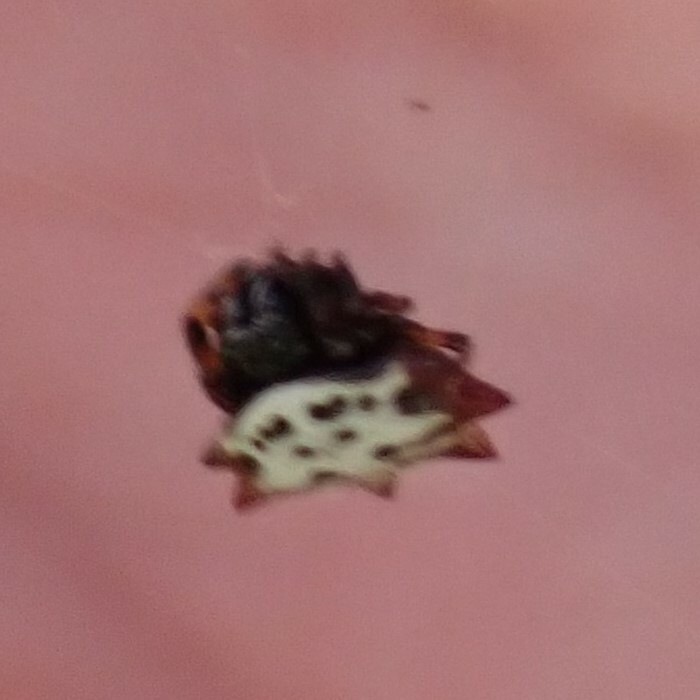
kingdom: Animalia
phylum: Arthropoda
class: Arachnida
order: Araneae
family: Araneidae
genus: Gasteracantha
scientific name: Gasteracantha cancriformis
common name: Orb weavers
